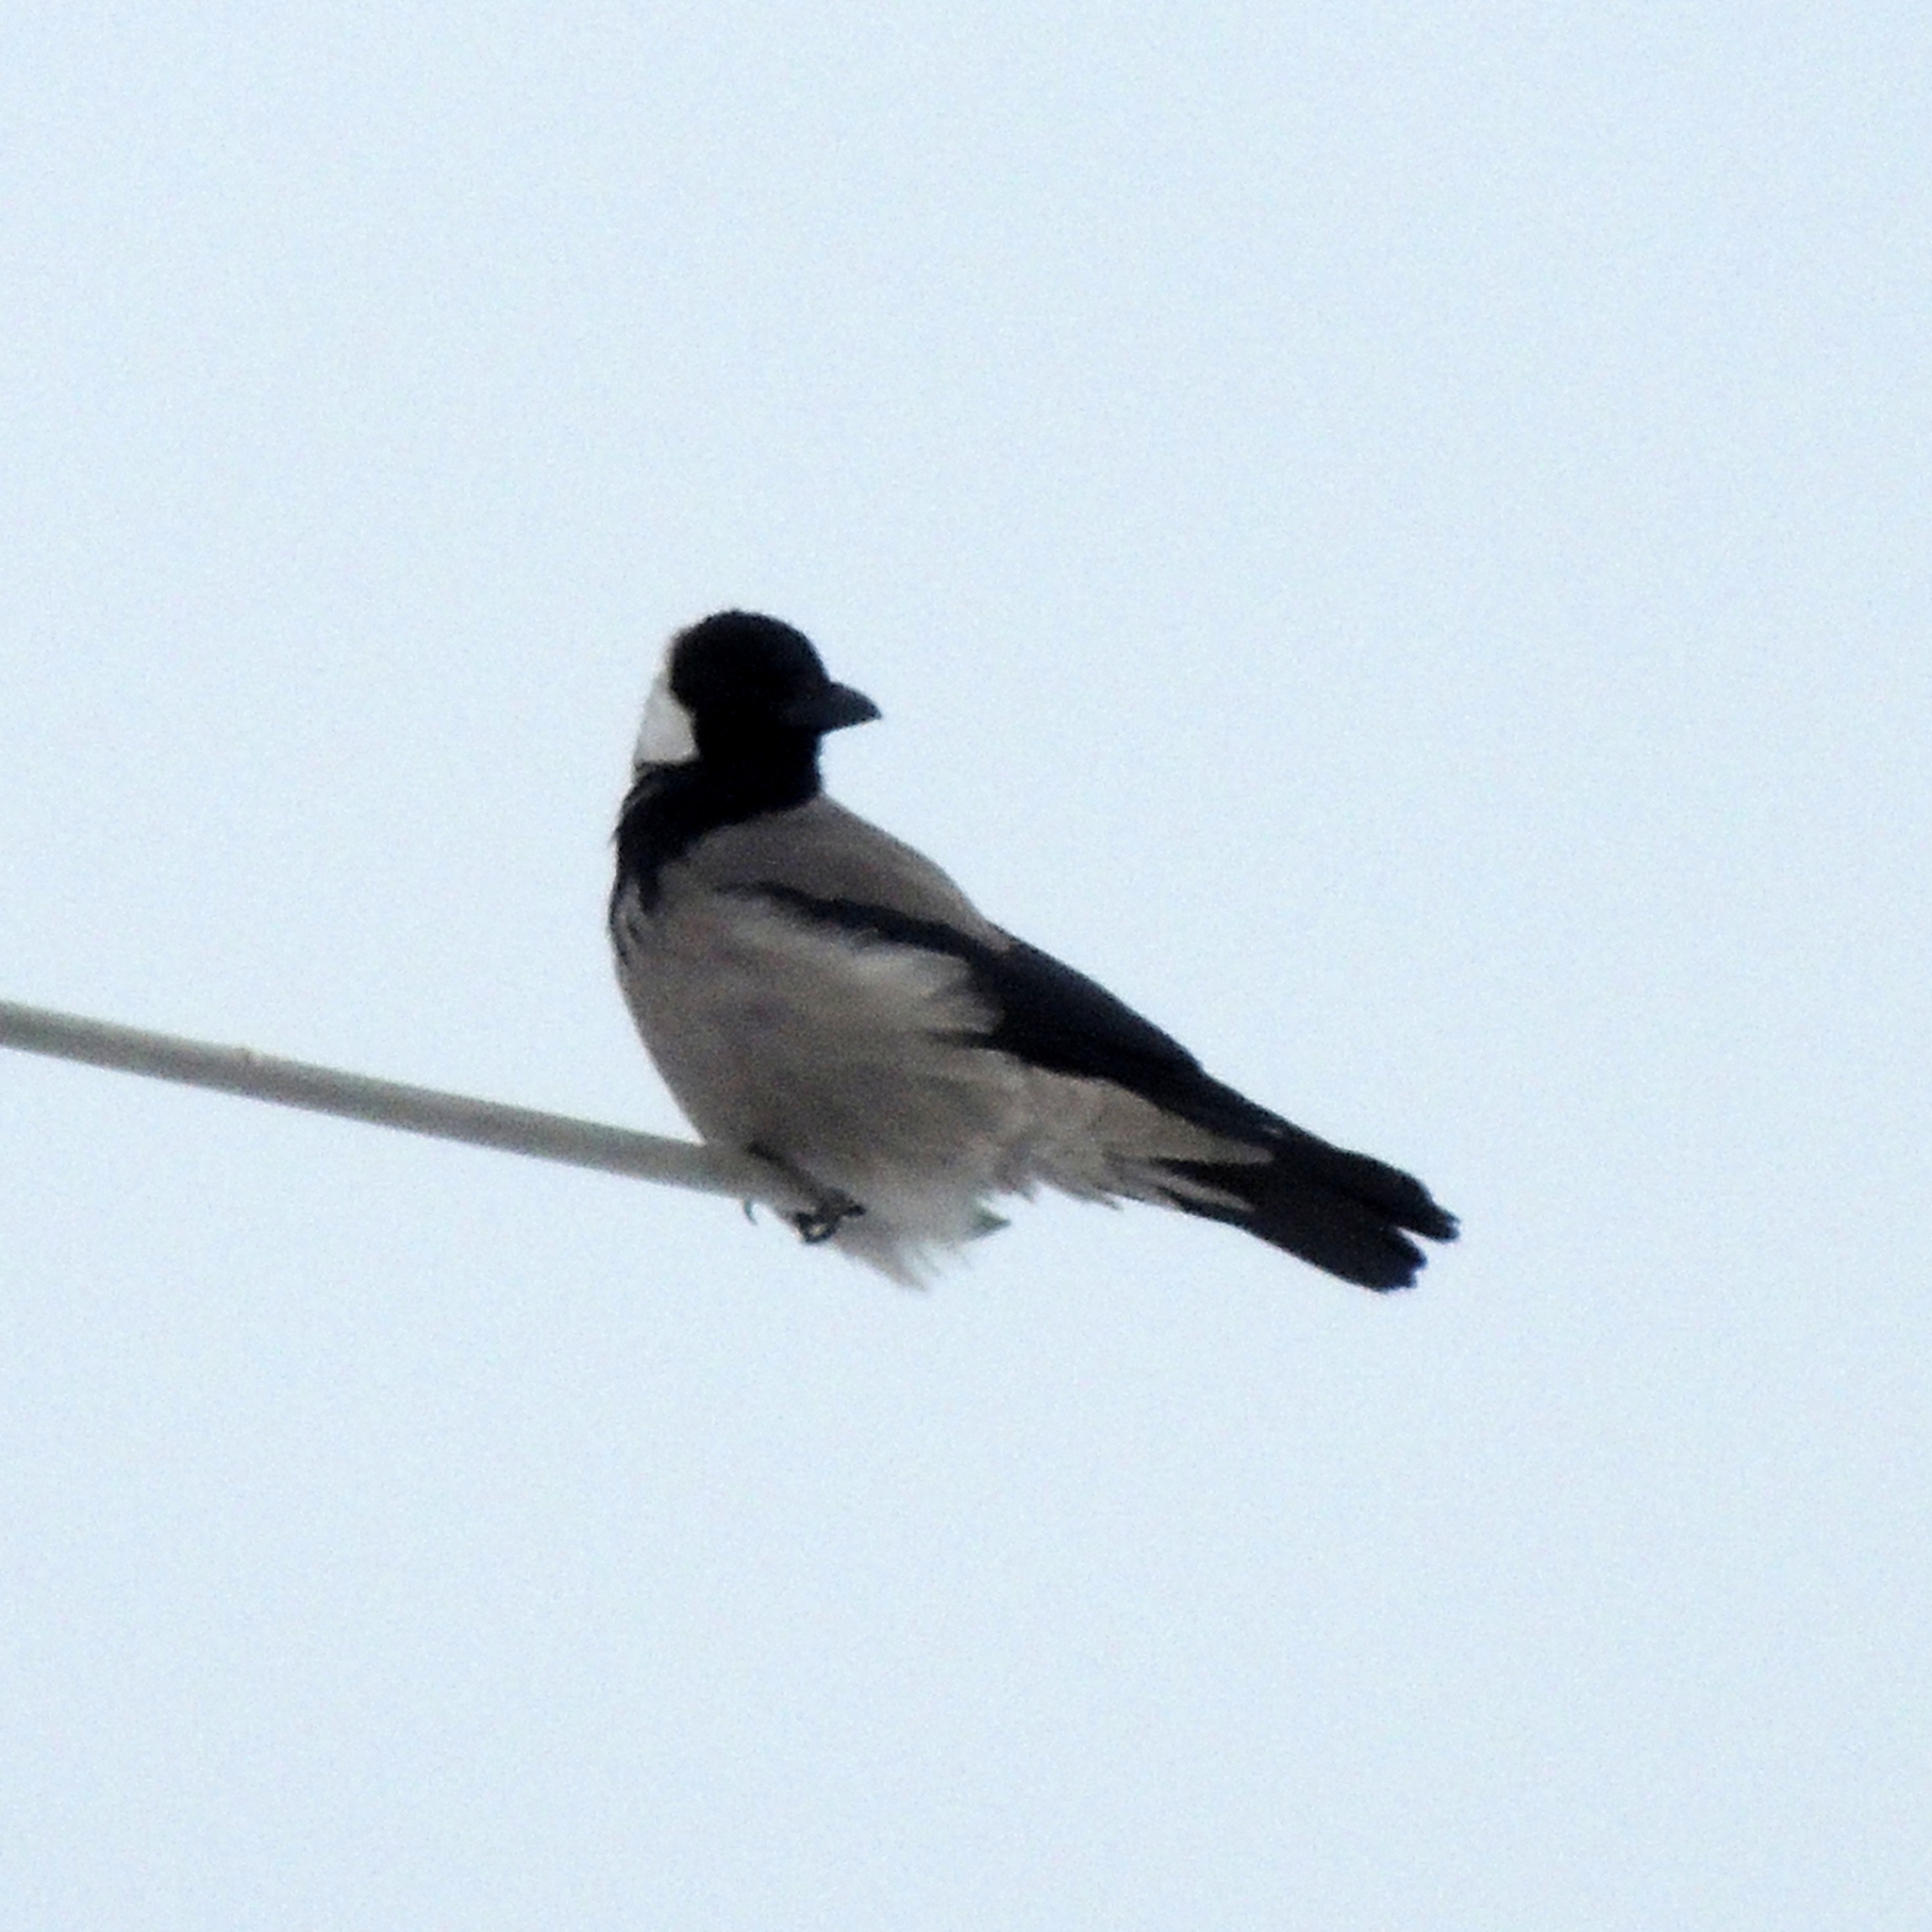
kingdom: Animalia
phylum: Chordata
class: Aves
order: Passeriformes
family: Corvidae
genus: Corvus
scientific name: Corvus cornix
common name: Hooded crow
